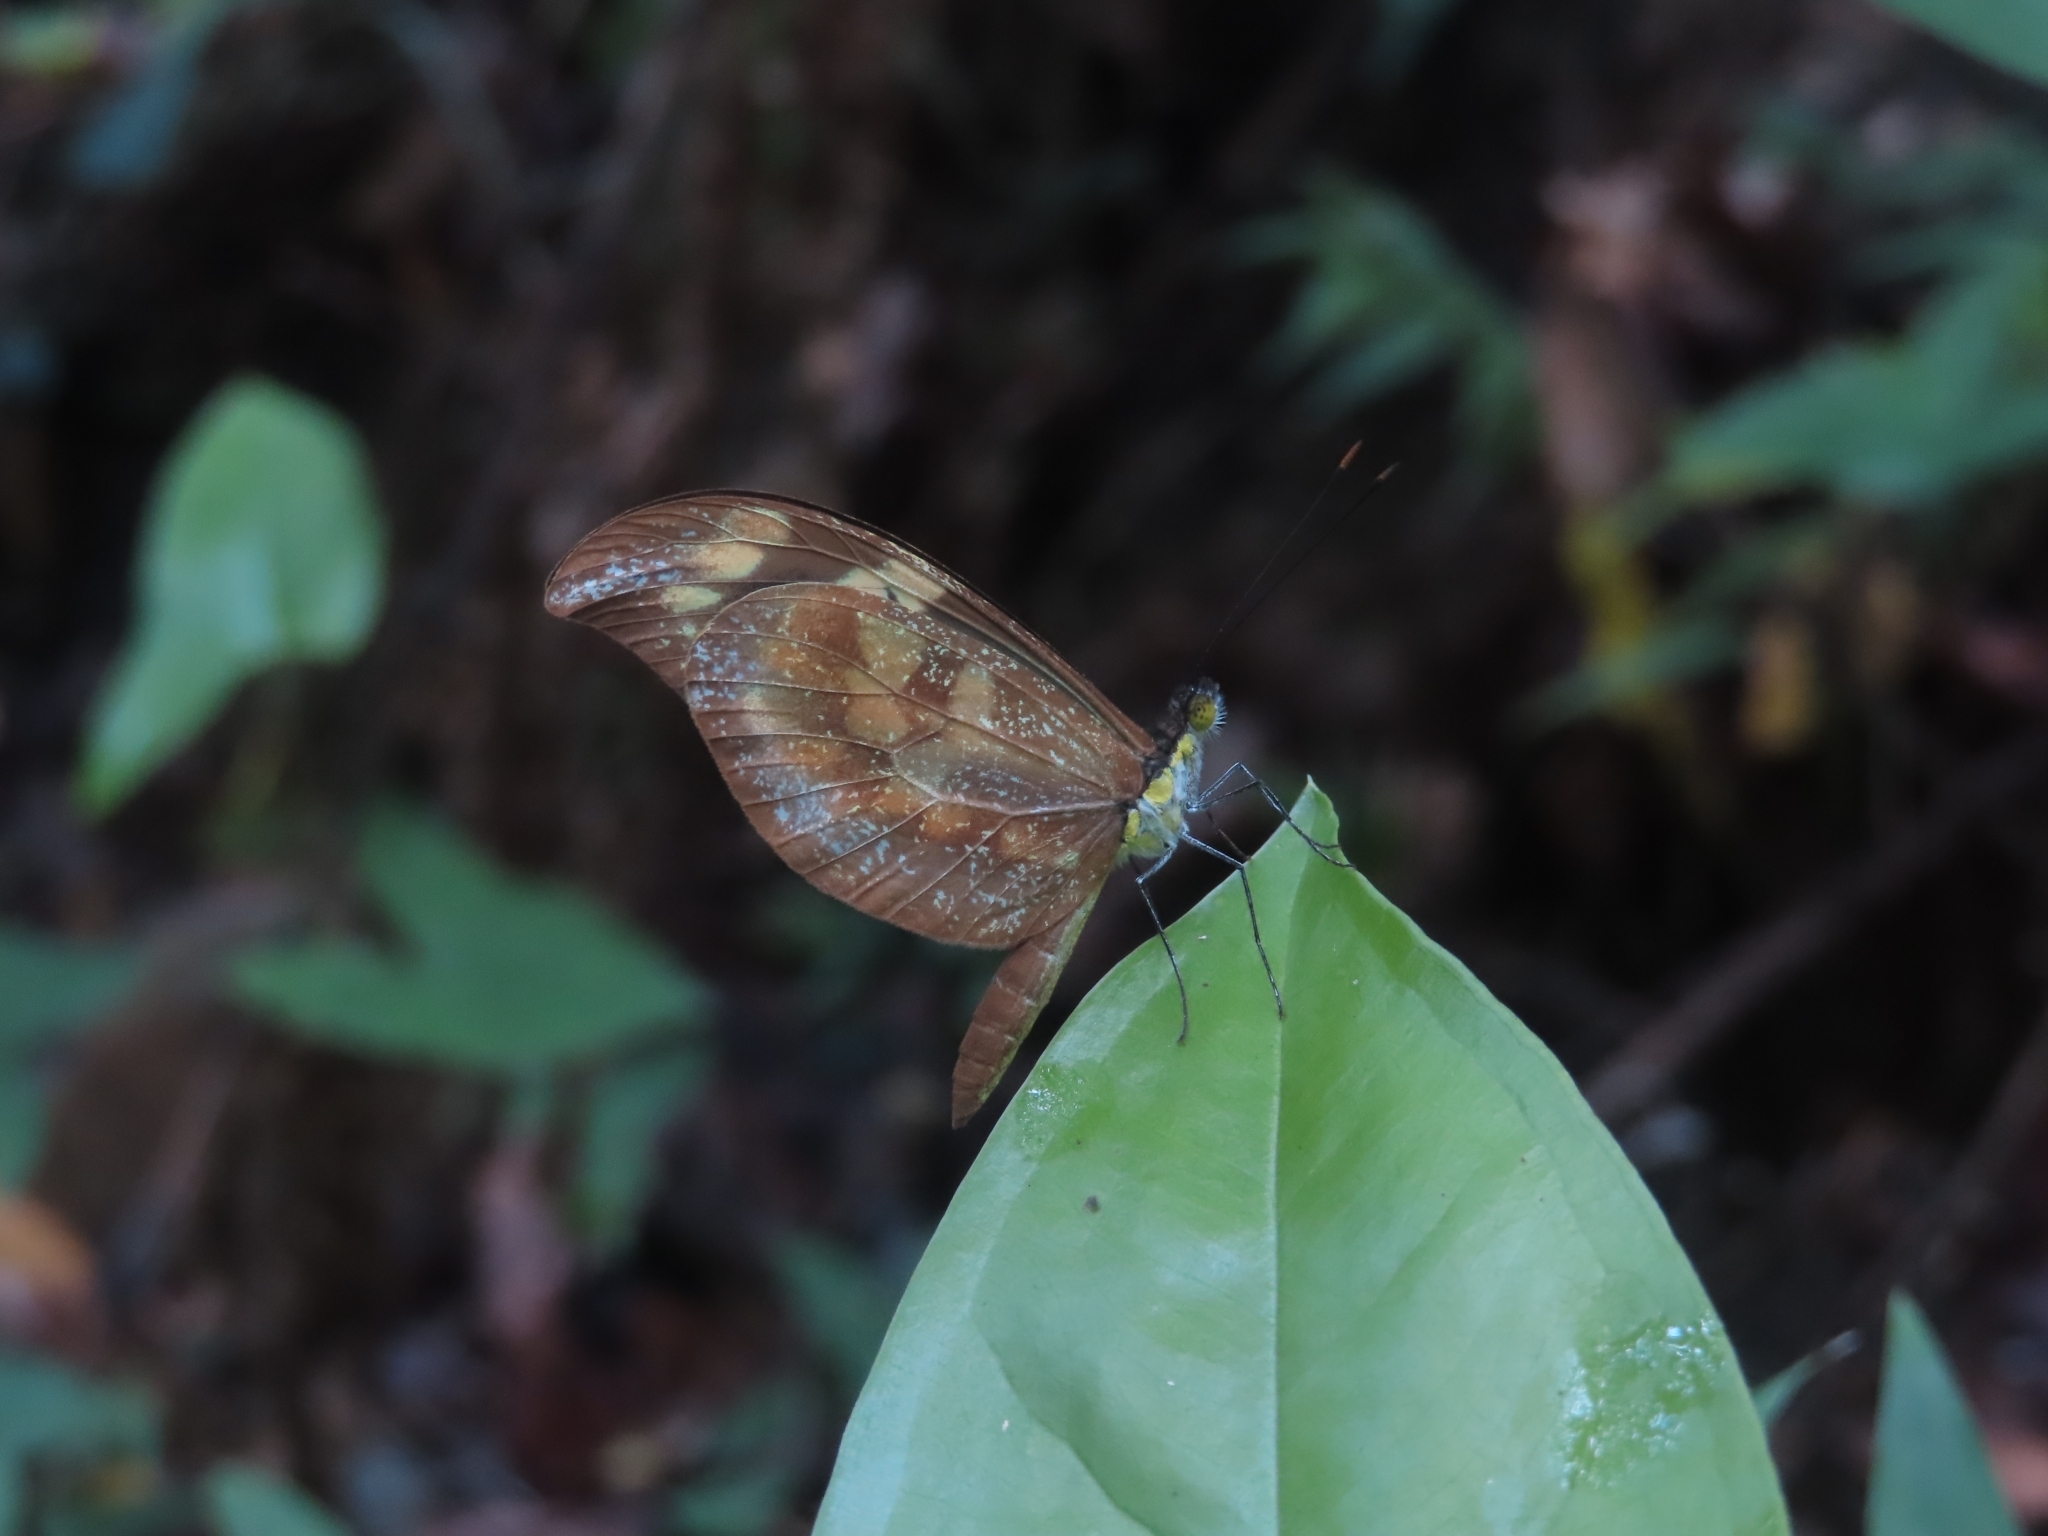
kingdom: Animalia
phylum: Arthropoda
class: Insecta
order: Lepidoptera
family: Pieridae
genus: Dismorphia
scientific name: Dismorphia spio
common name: Haitian mimic
